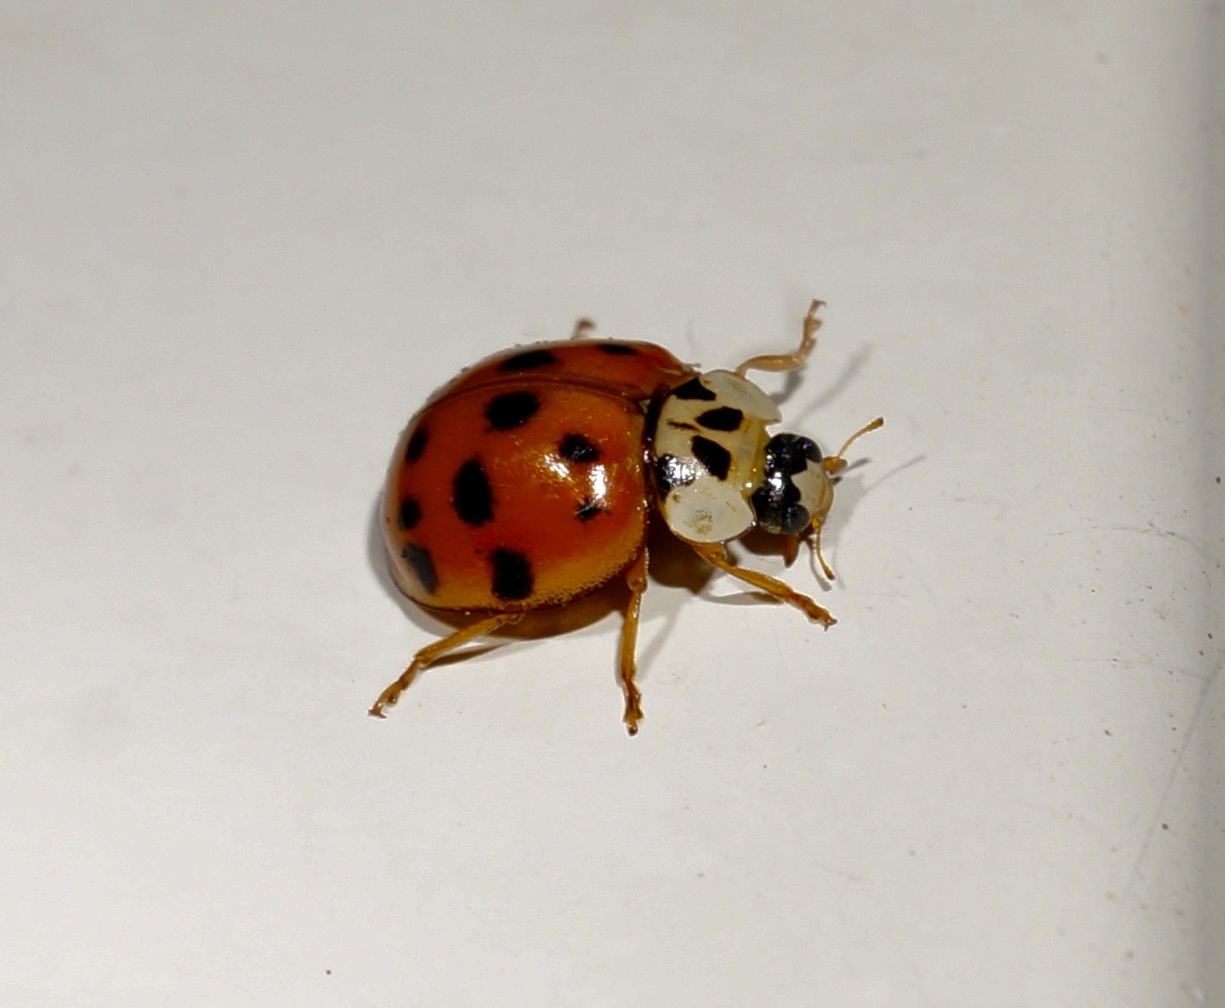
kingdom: Animalia
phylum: Arthropoda
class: Insecta
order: Coleoptera
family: Coccinellidae
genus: Harmonia
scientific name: Harmonia axyridis
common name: Harlequin ladybird
